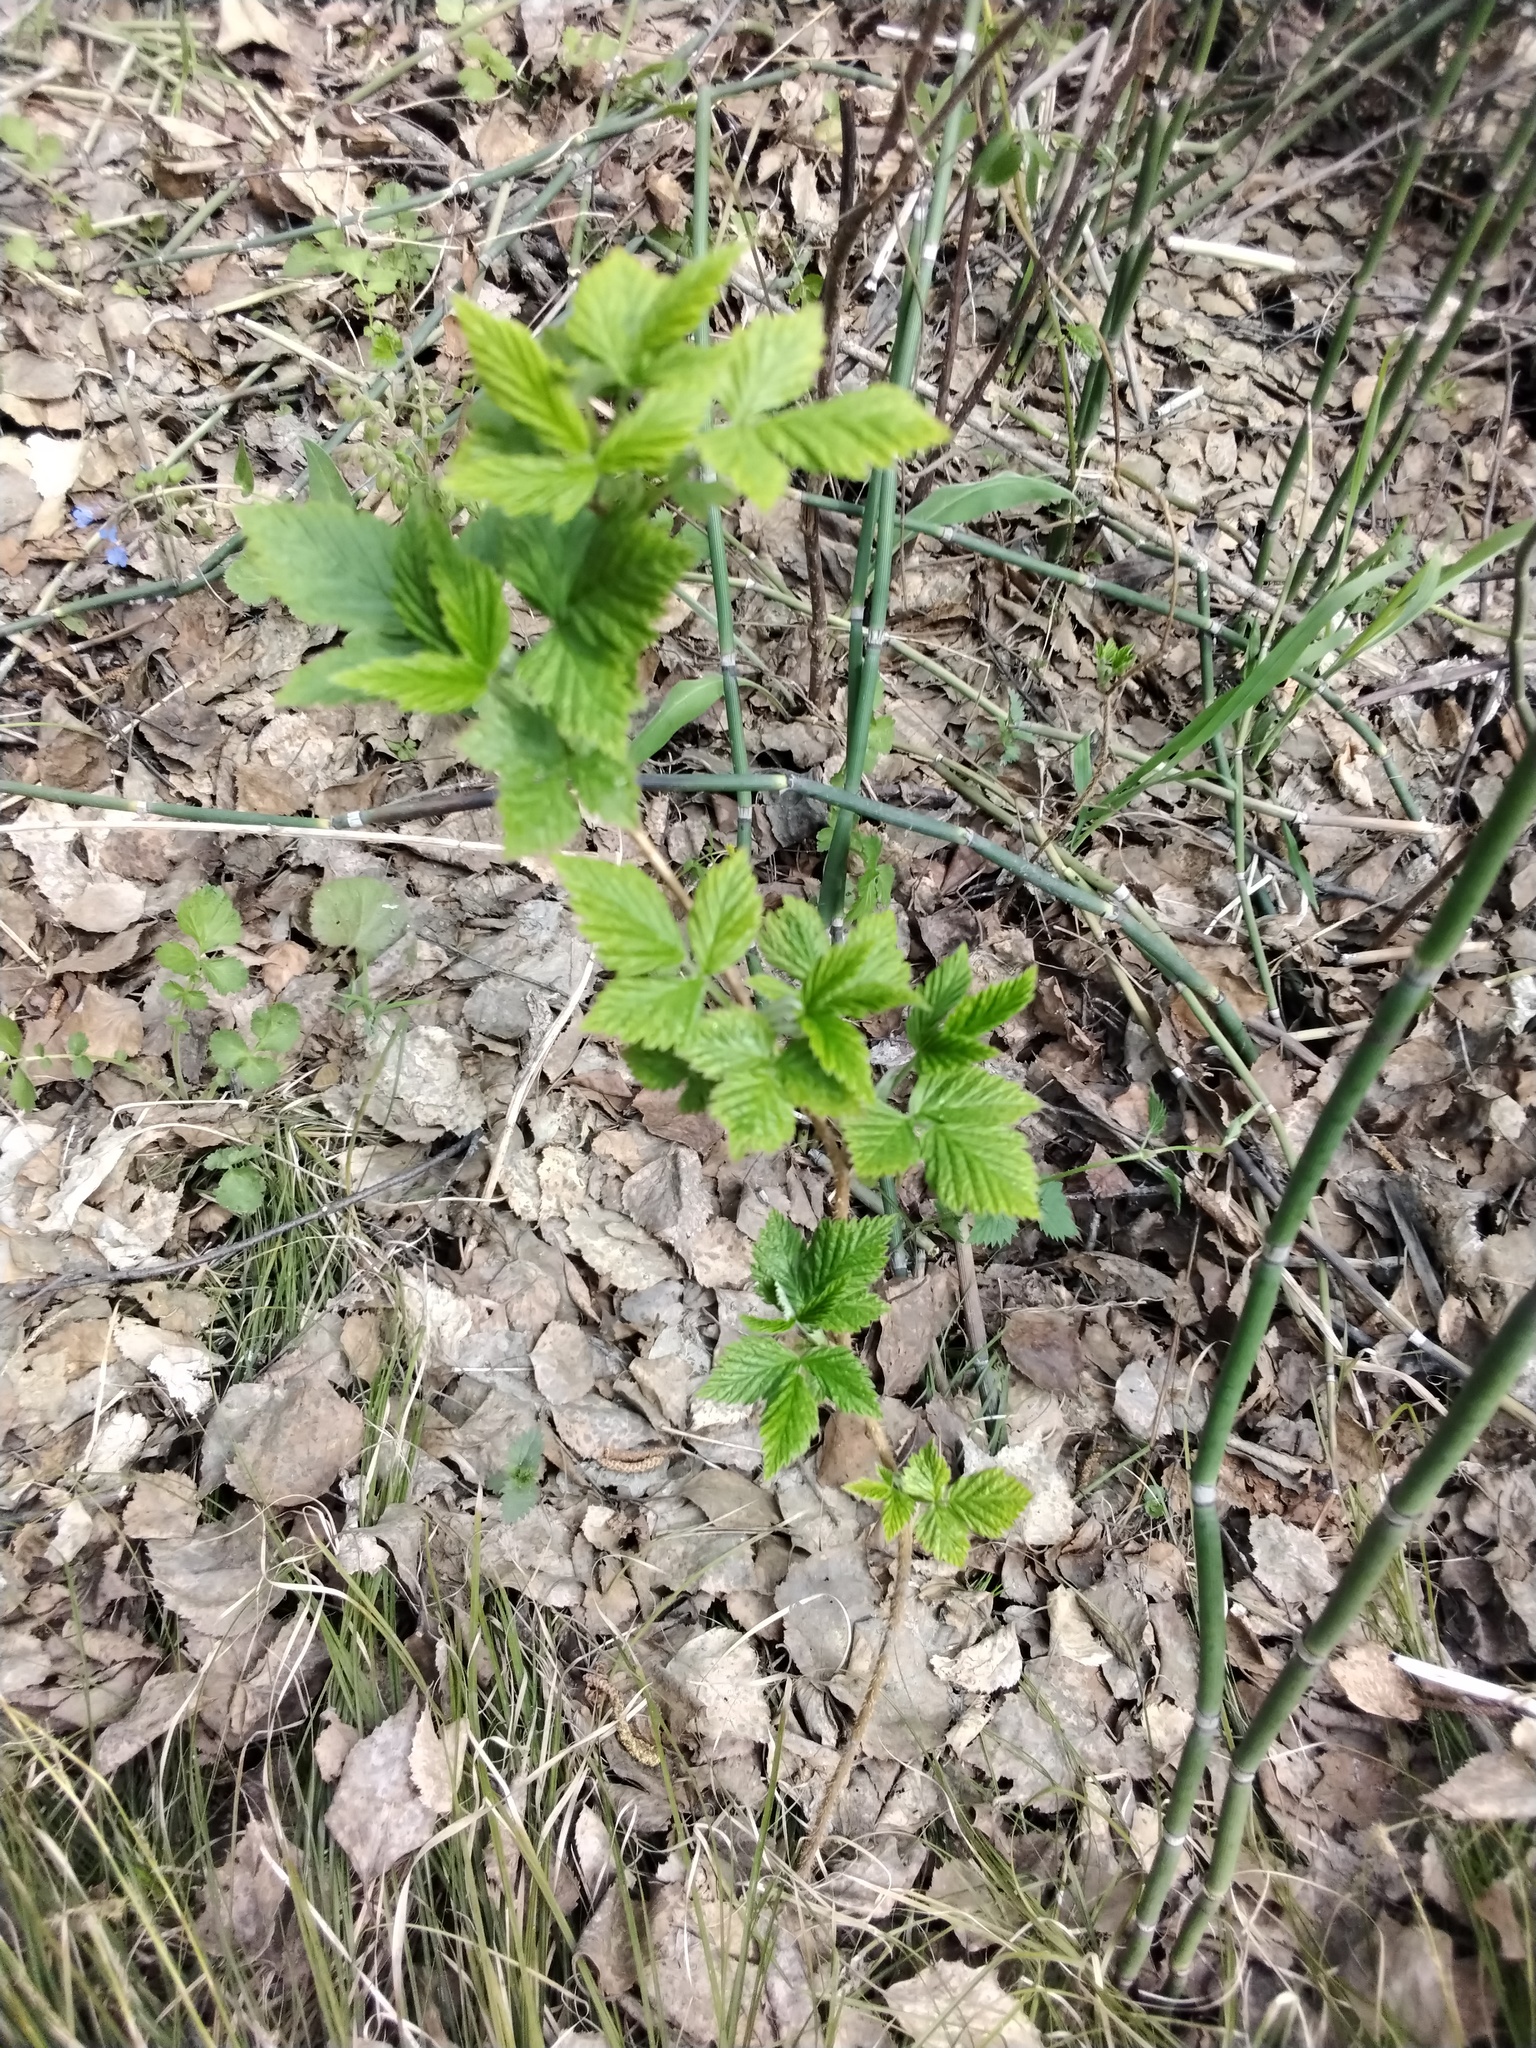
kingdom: Plantae
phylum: Tracheophyta
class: Magnoliopsida
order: Rosales
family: Rosaceae
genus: Rubus
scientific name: Rubus idaeus
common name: Raspberry
